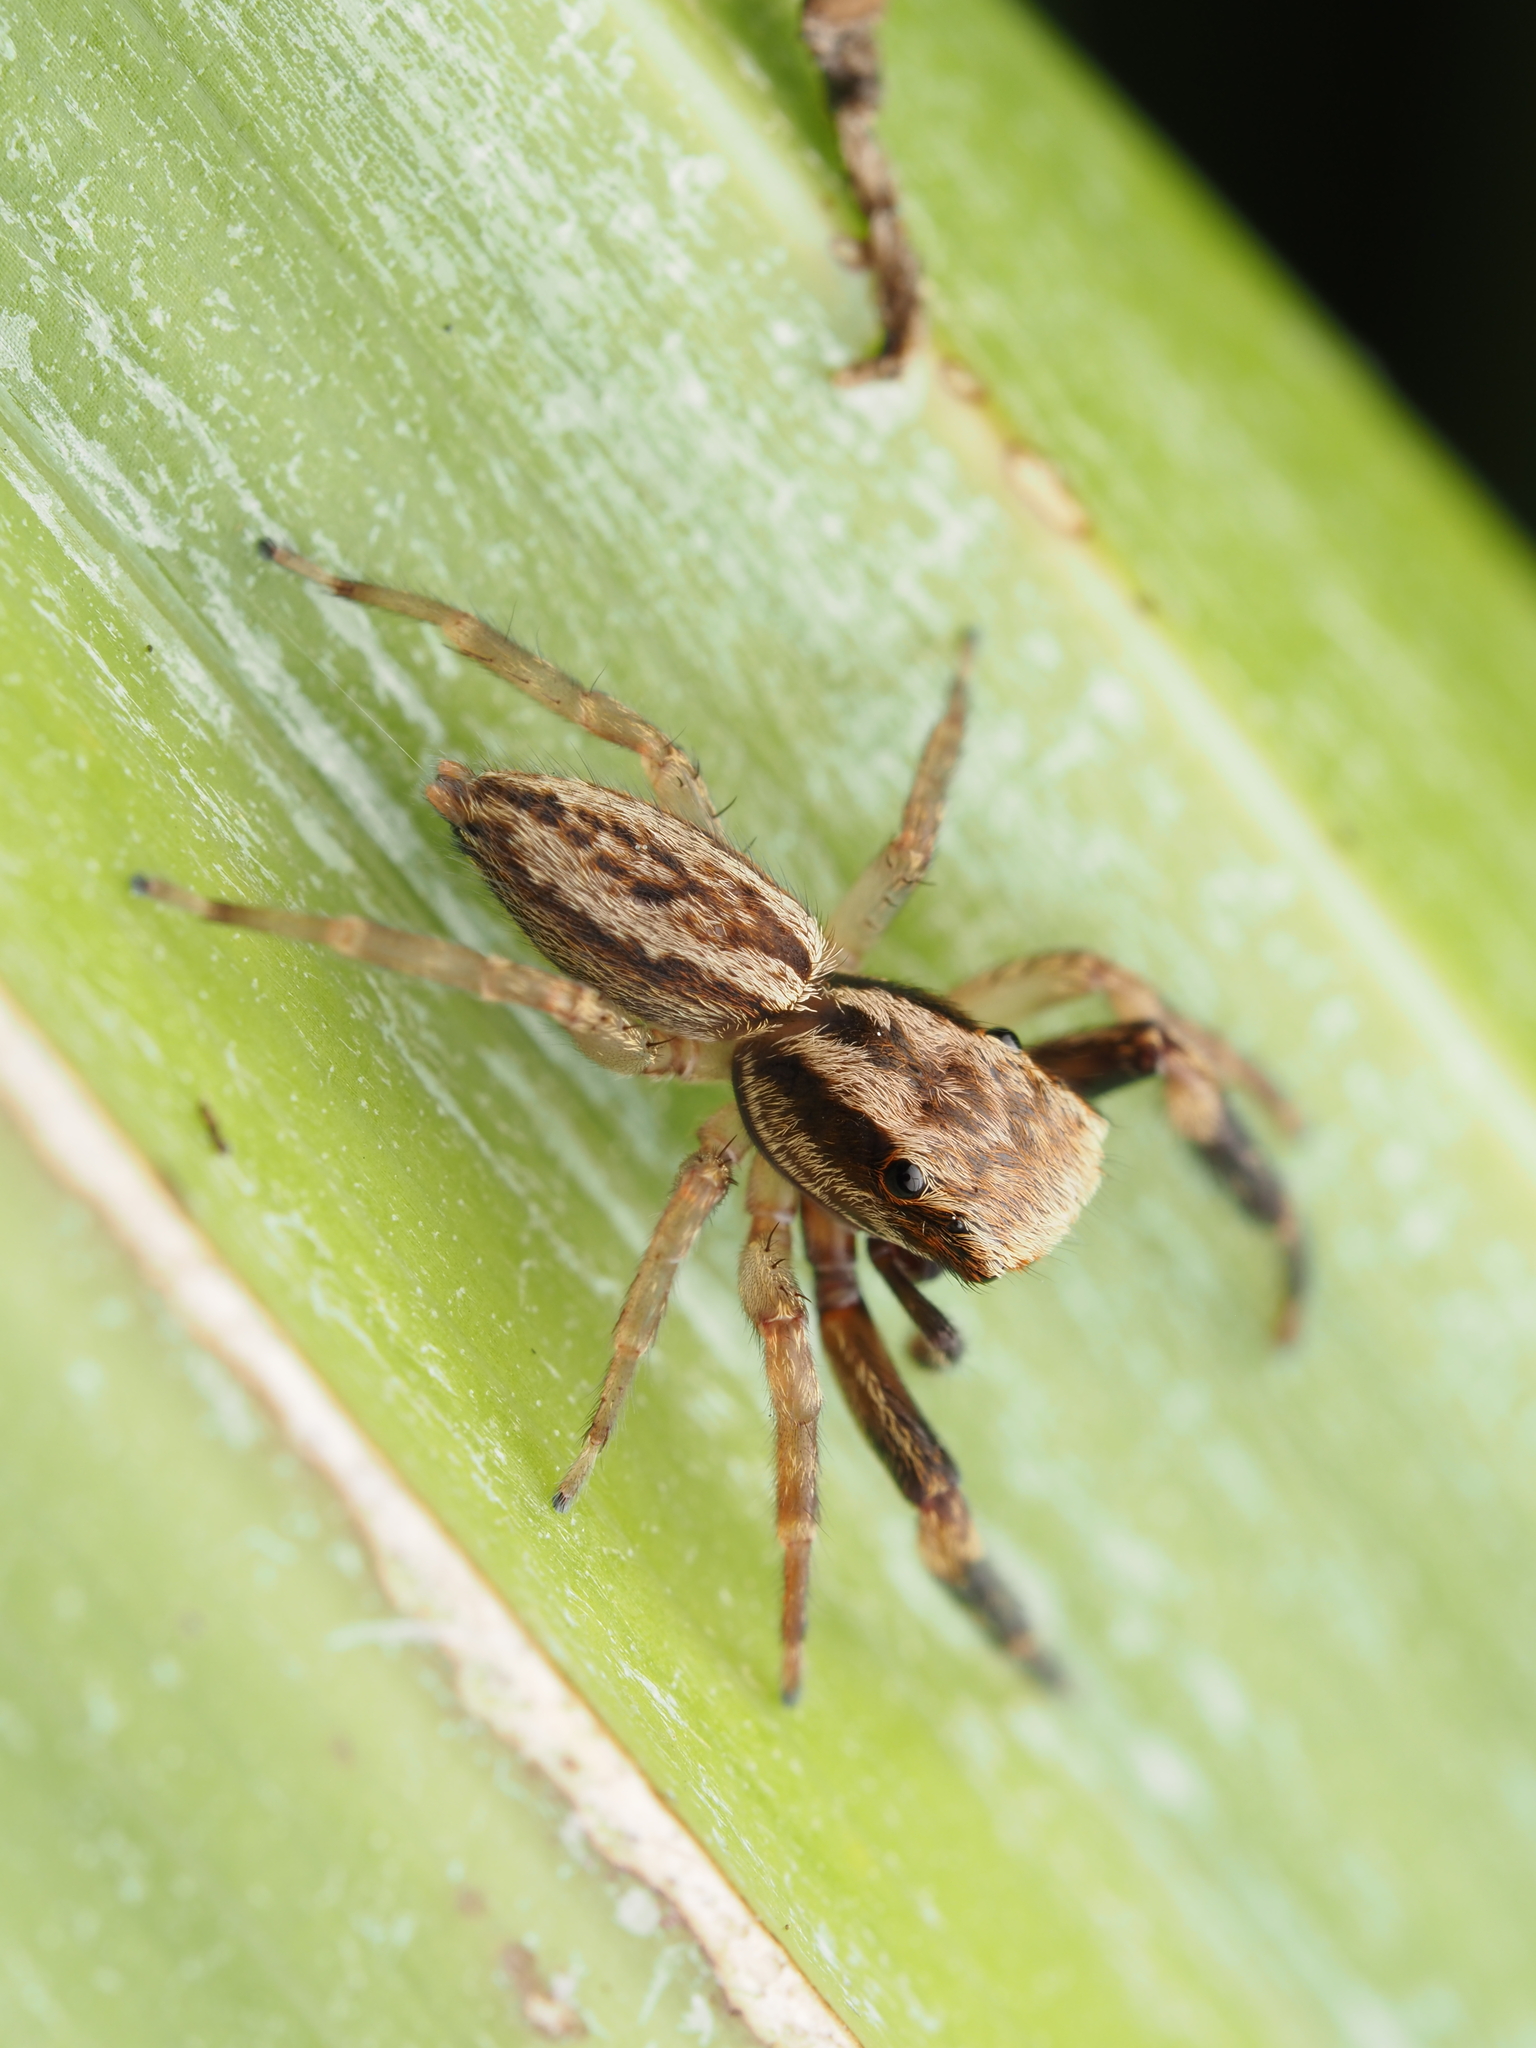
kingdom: Animalia
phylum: Arthropoda
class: Arachnida
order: Araneae
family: Salticidae
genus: Trite
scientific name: Trite auricoma
